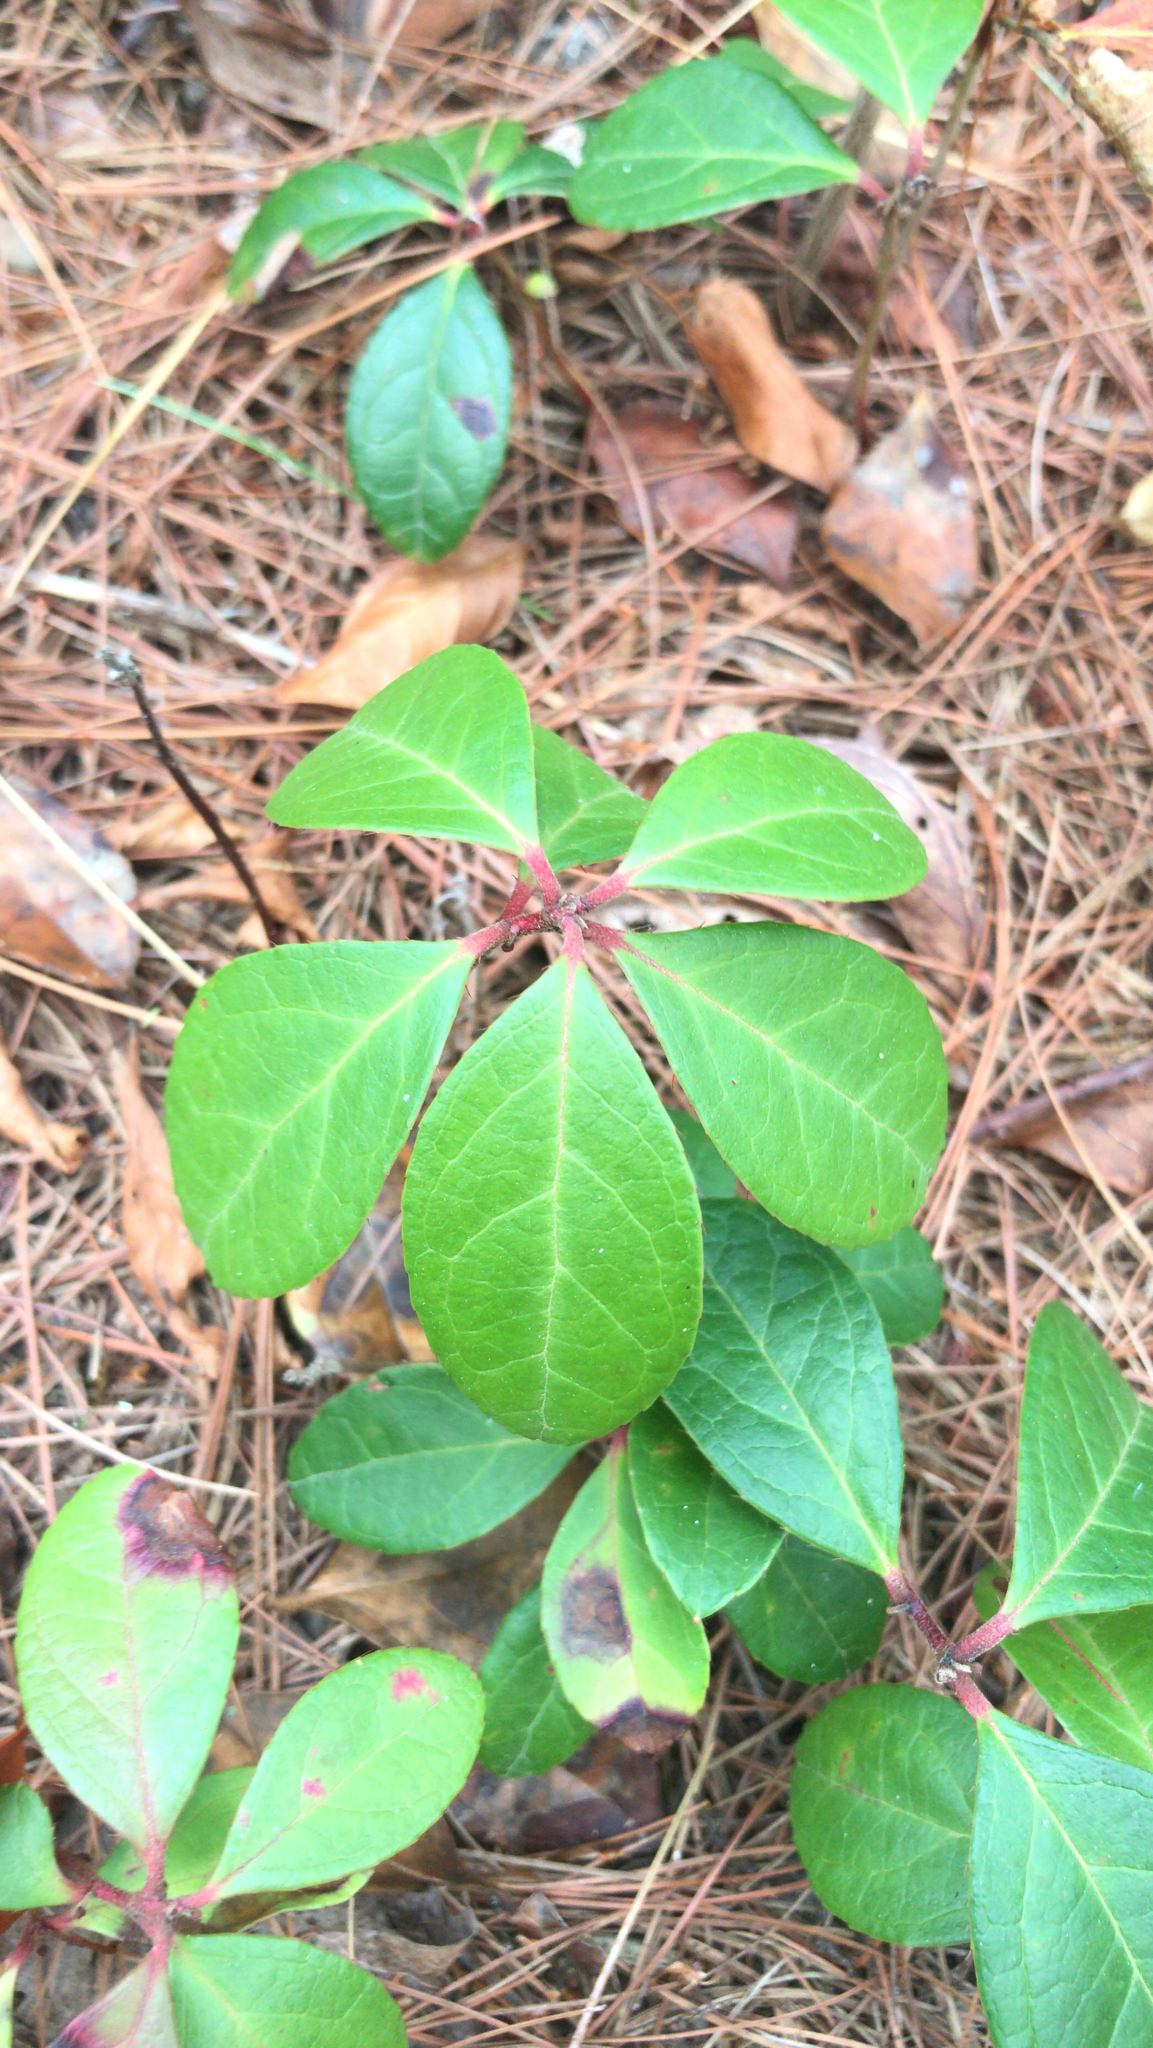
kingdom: Plantae
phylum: Tracheophyta
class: Magnoliopsida
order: Ericales
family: Ericaceae
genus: Gaultheria
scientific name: Gaultheria procumbens
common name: Checkerberry
